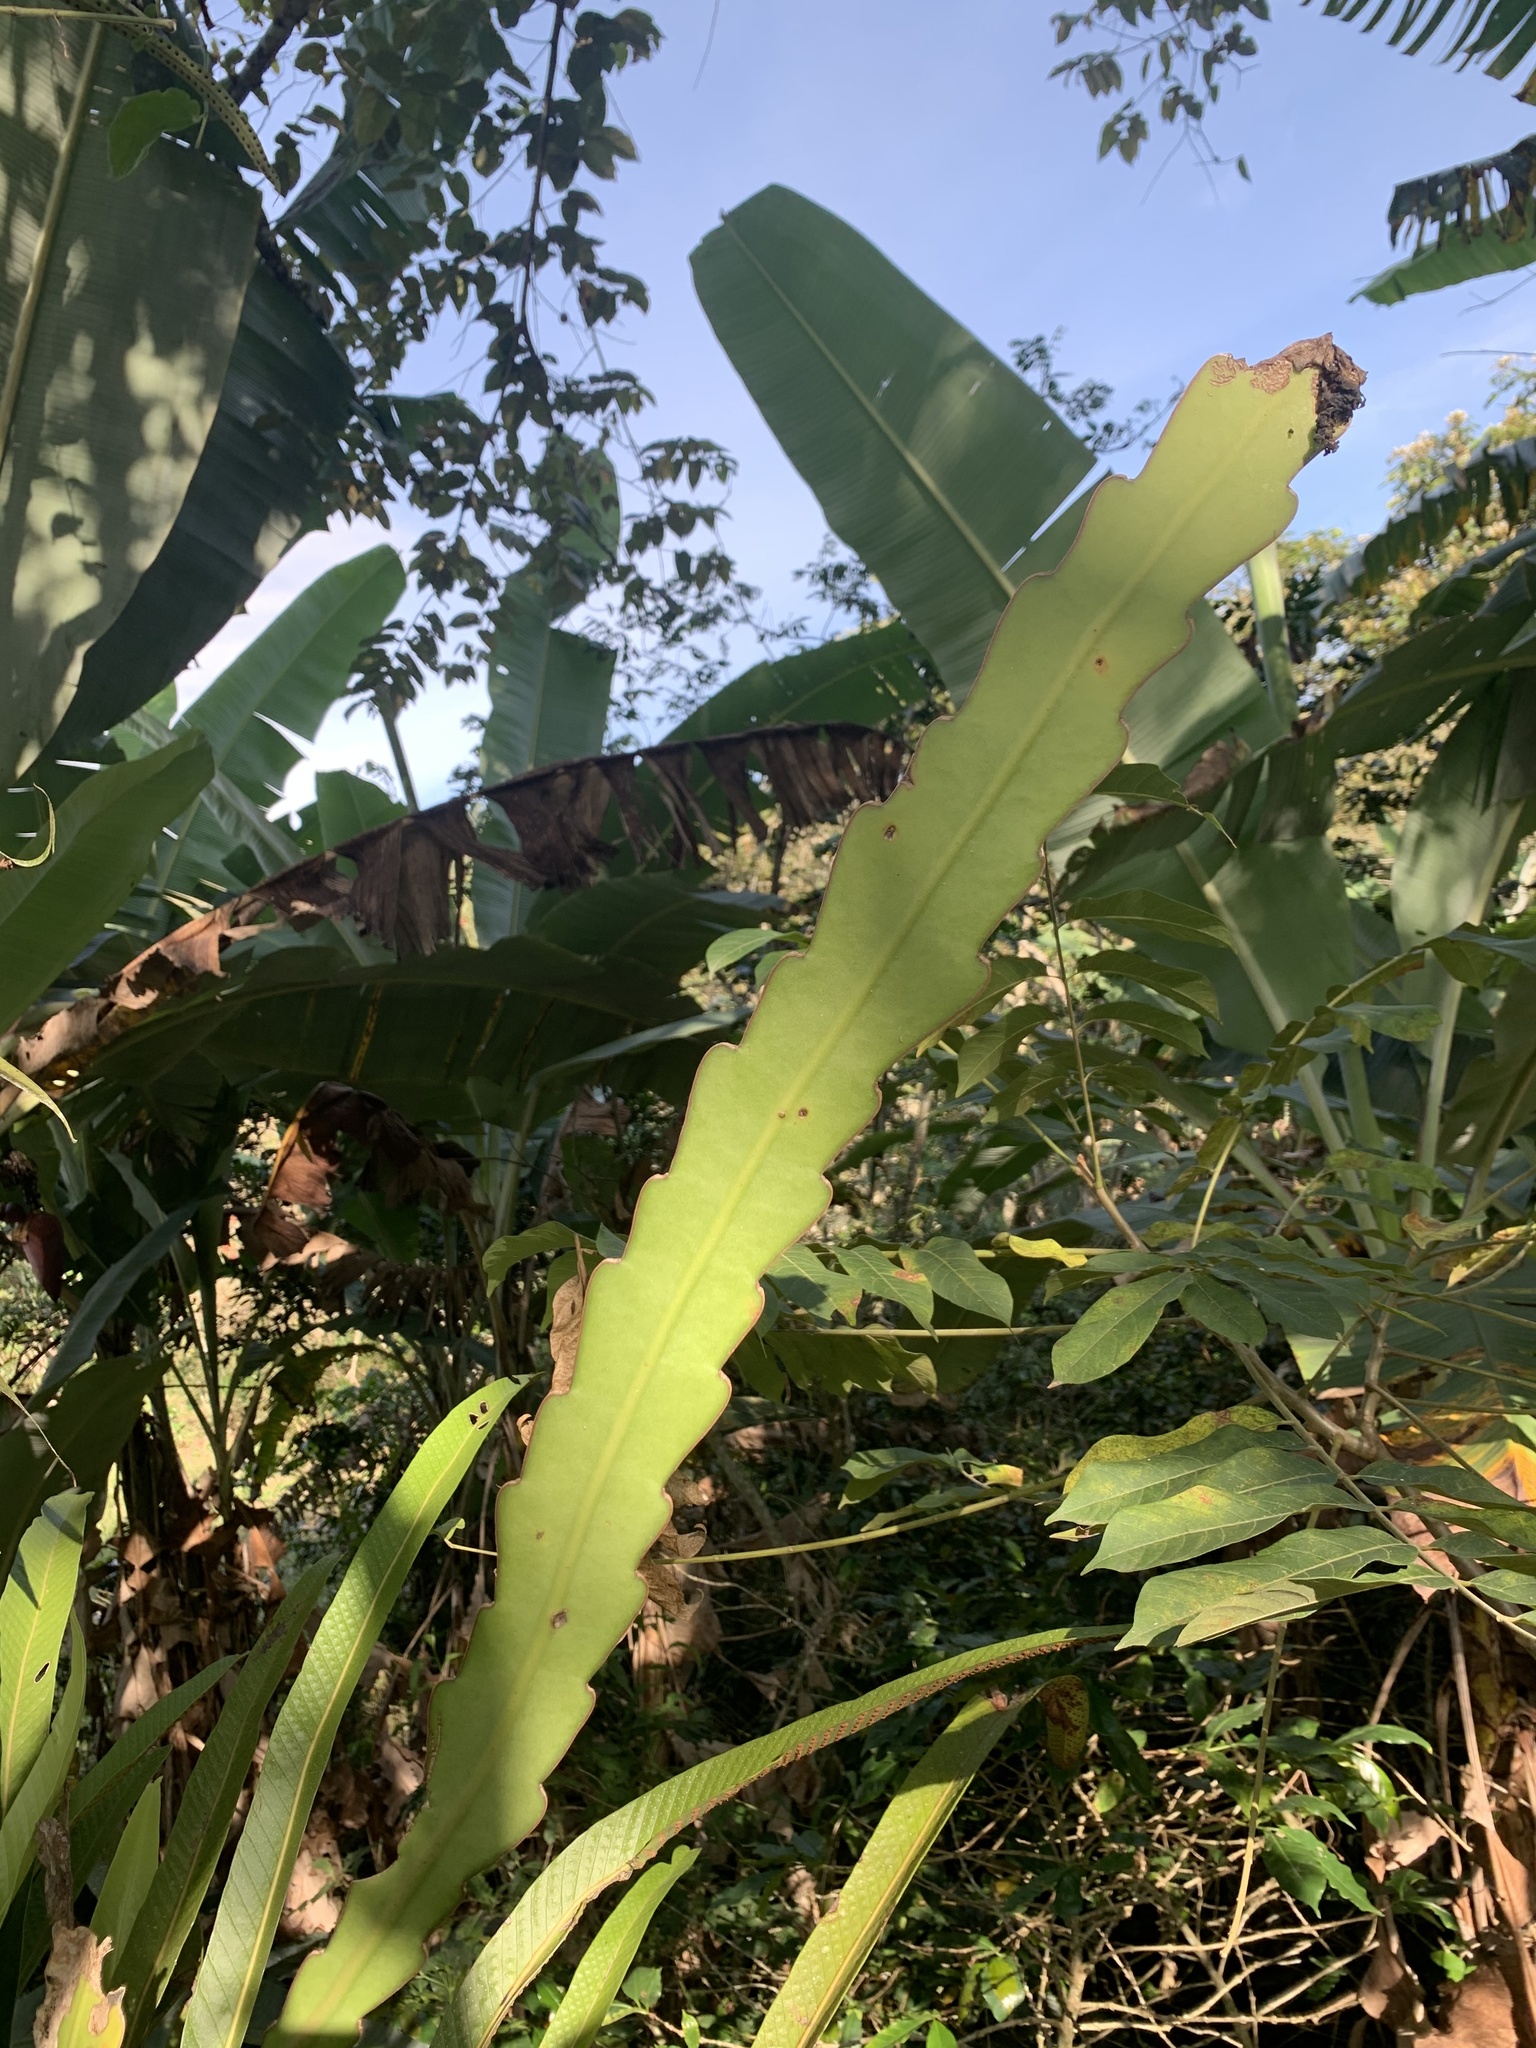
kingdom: Plantae
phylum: Tracheophyta
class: Magnoliopsida
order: Caryophyllales
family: Cactaceae
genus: Epiphyllum
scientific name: Epiphyllum phyllanthus
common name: Climbing cactus
